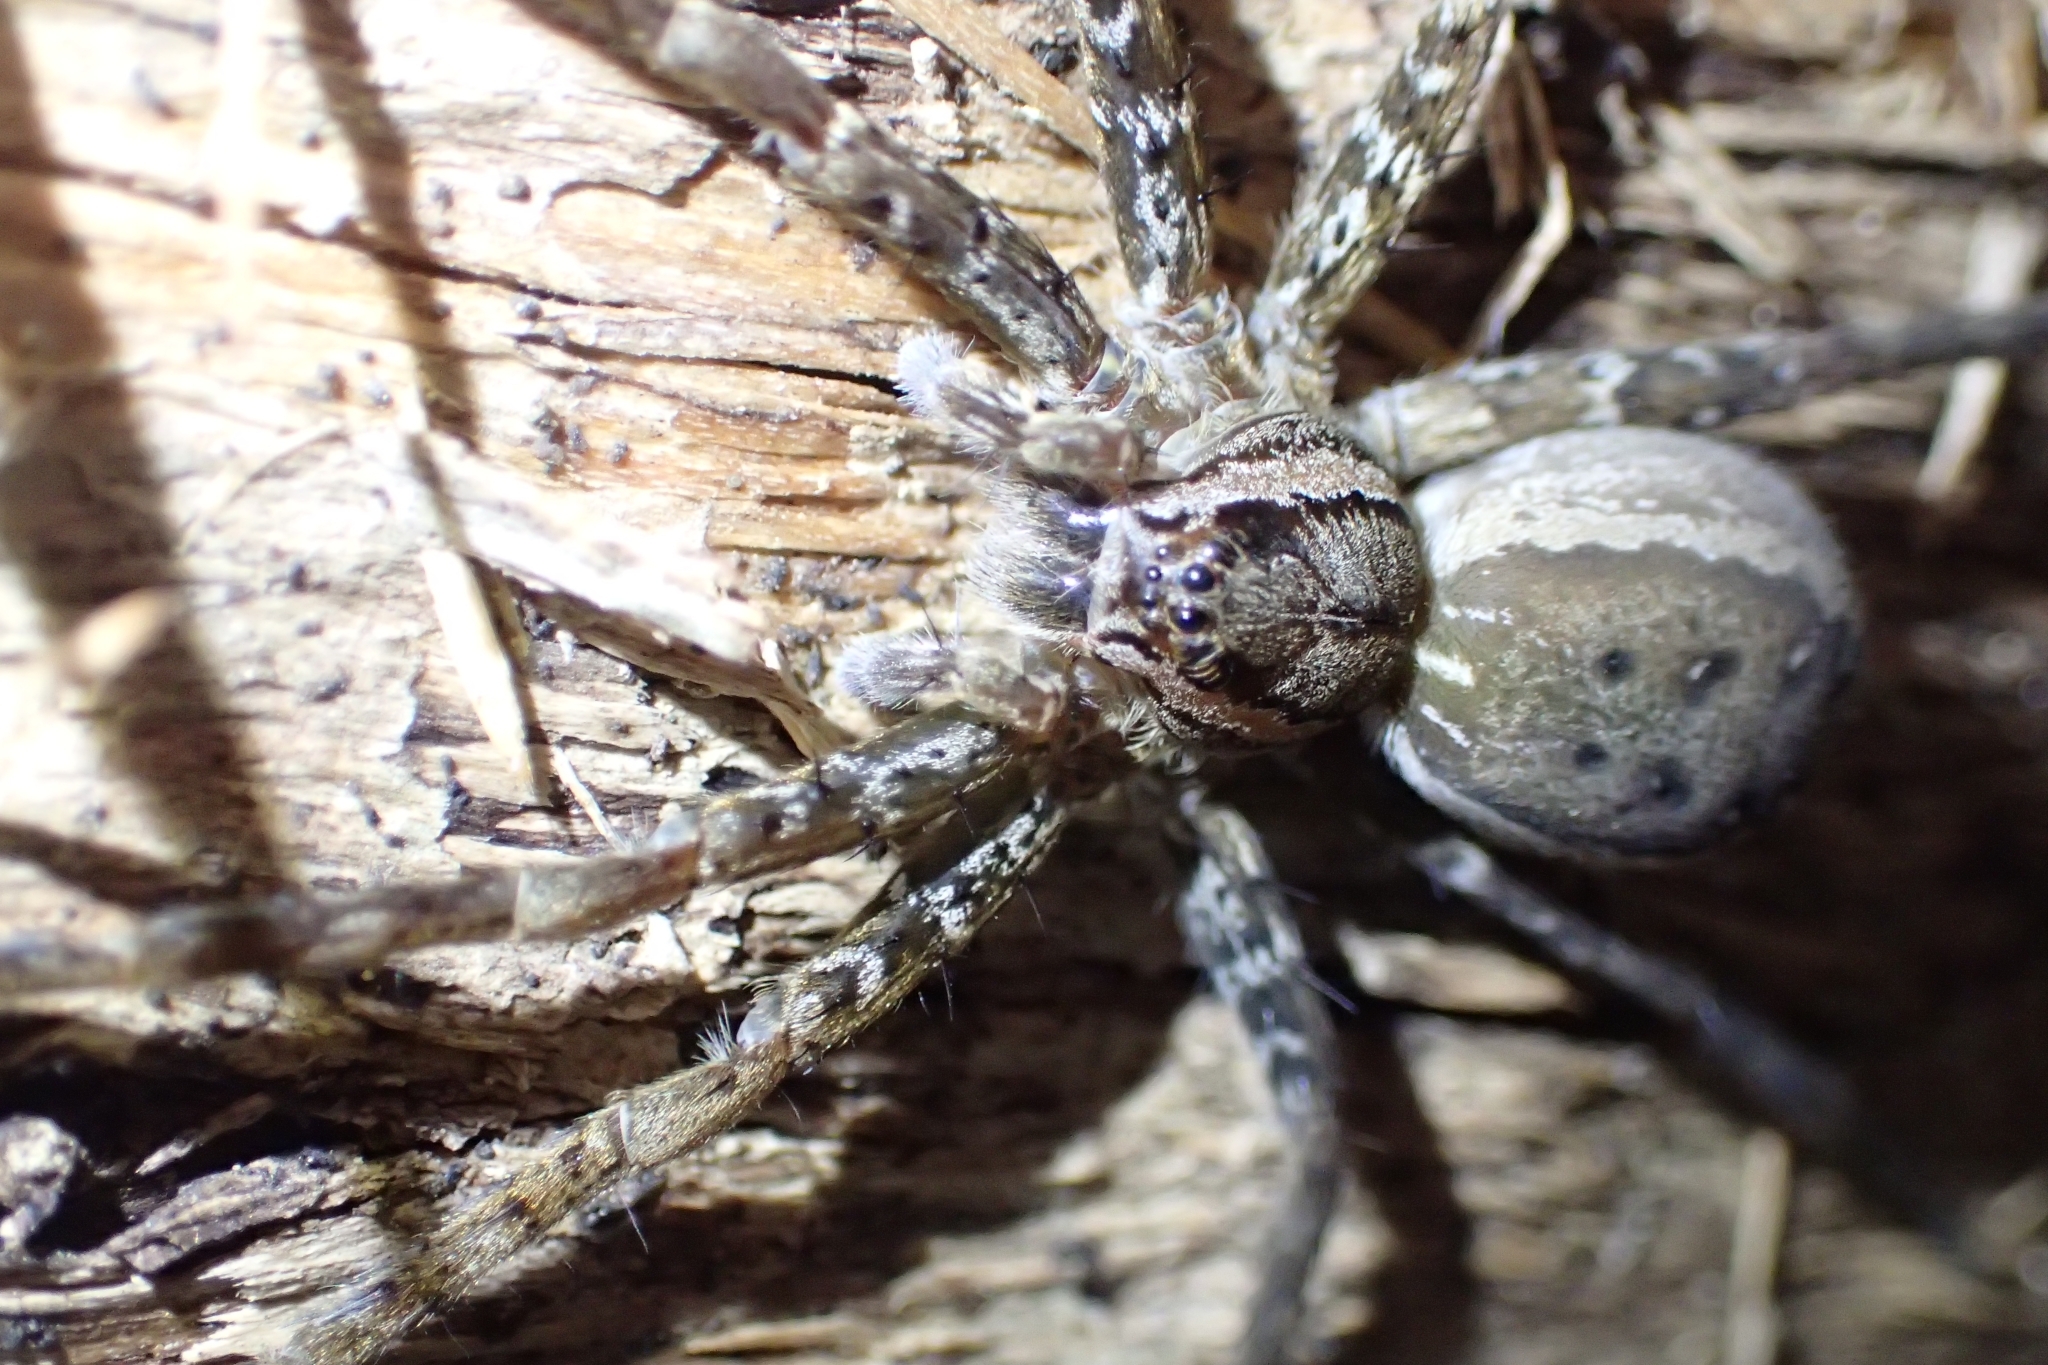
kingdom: Animalia
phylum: Arthropoda
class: Arachnida
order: Araneae
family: Pisauridae
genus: Dolomedes
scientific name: Dolomedes dondalei
